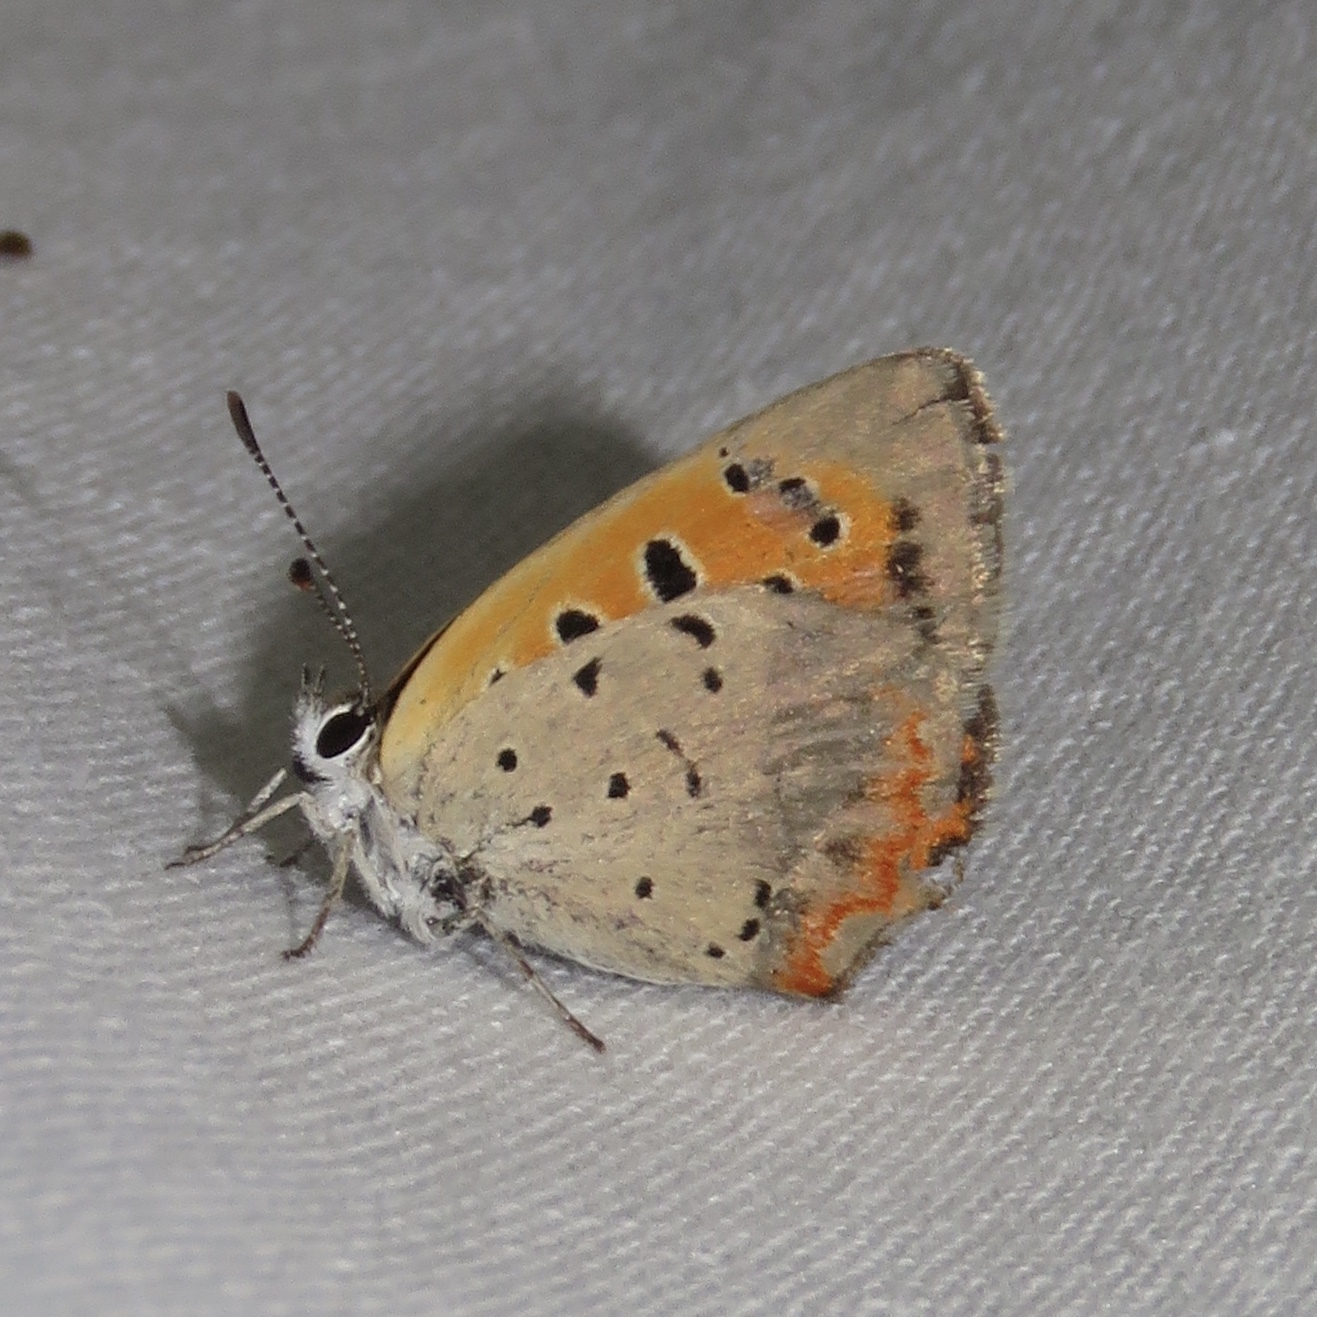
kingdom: Animalia
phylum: Arthropoda
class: Insecta
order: Lepidoptera
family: Lycaenidae
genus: Lycaena
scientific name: Lycaena hypophlaeas
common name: American copper
